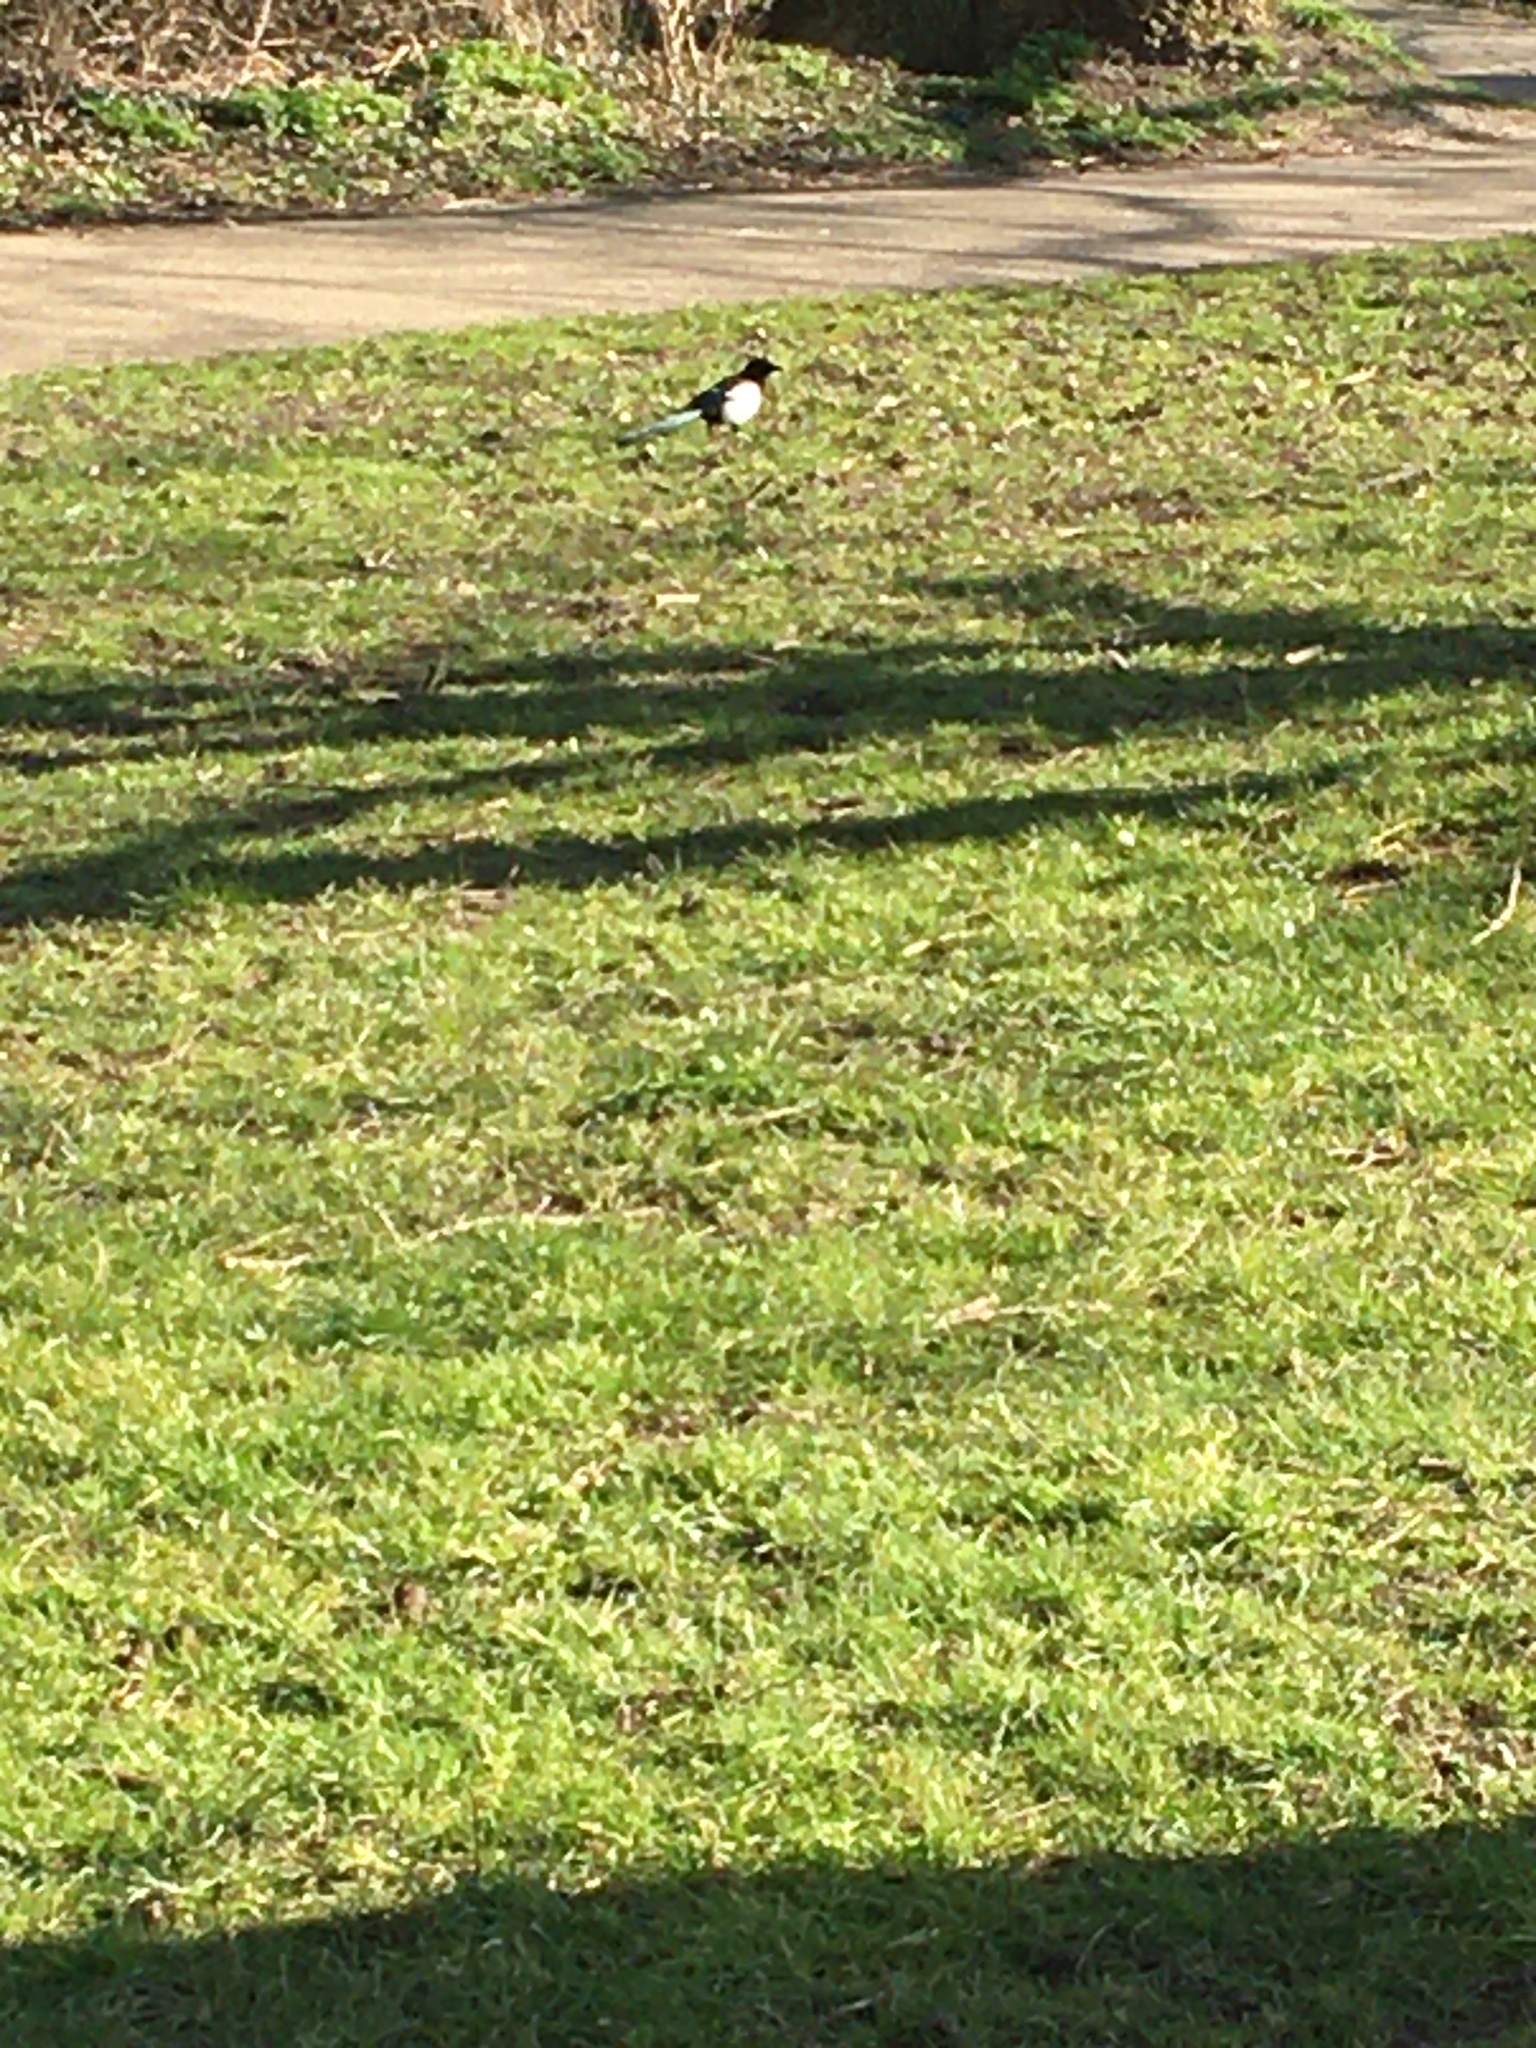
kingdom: Animalia
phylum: Chordata
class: Aves
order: Passeriformes
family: Corvidae
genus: Pica
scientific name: Pica pica
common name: Eurasian magpie
